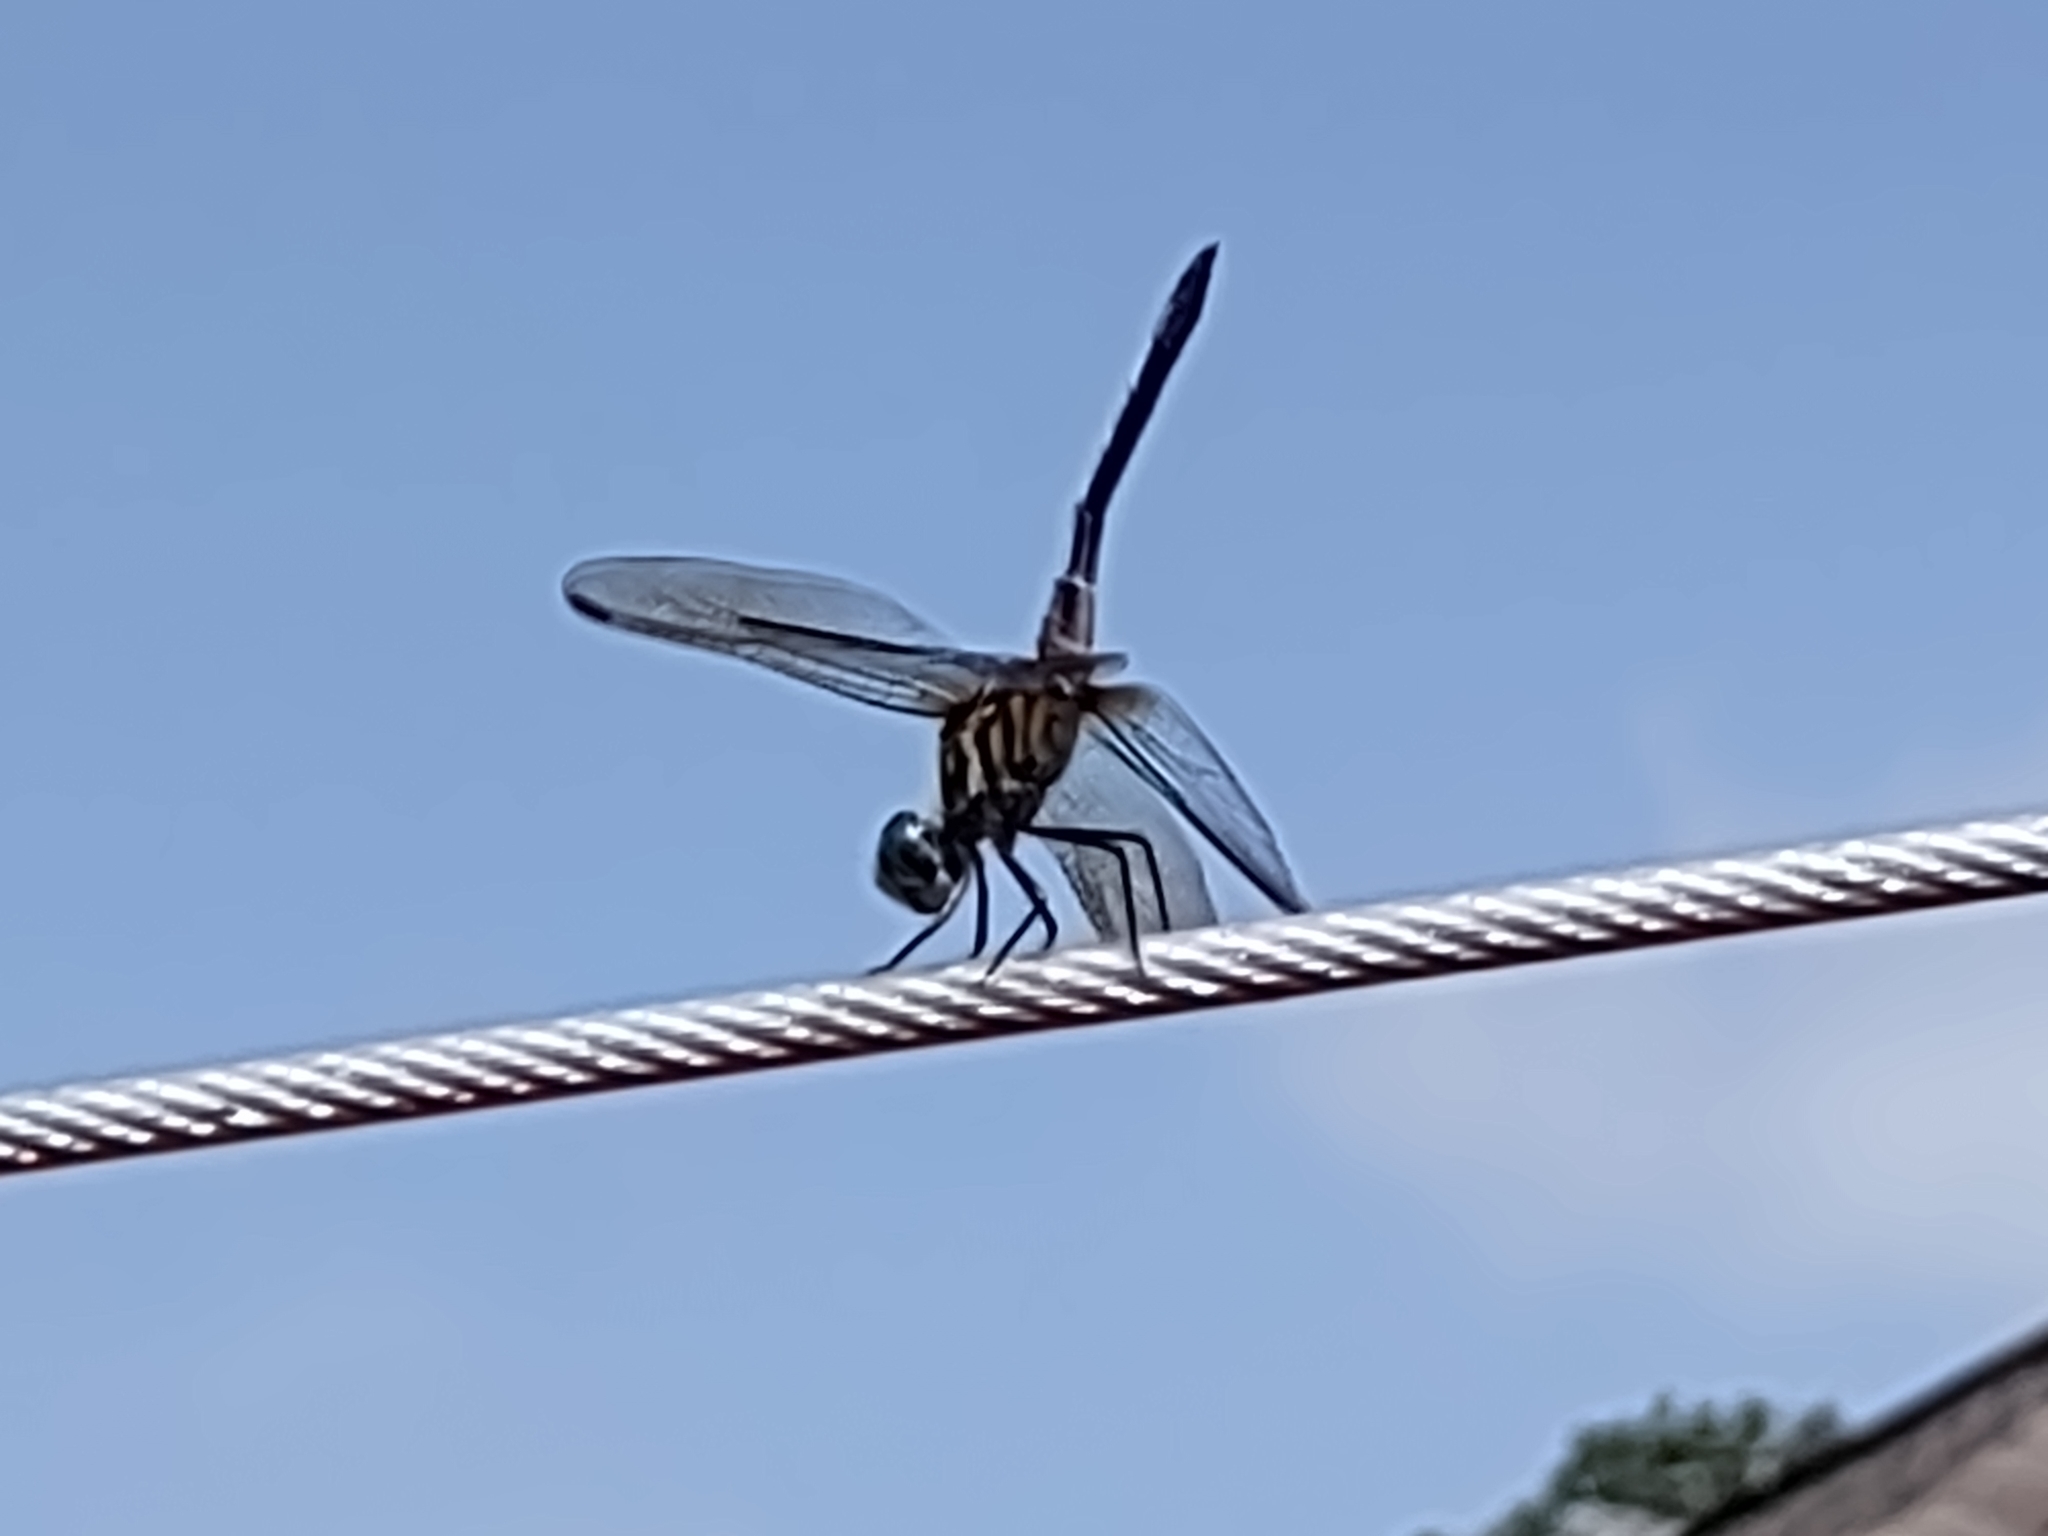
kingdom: Animalia
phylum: Arthropoda
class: Insecta
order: Odonata
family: Libellulidae
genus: Pachydiplax
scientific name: Pachydiplax longipennis
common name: Blue dasher
